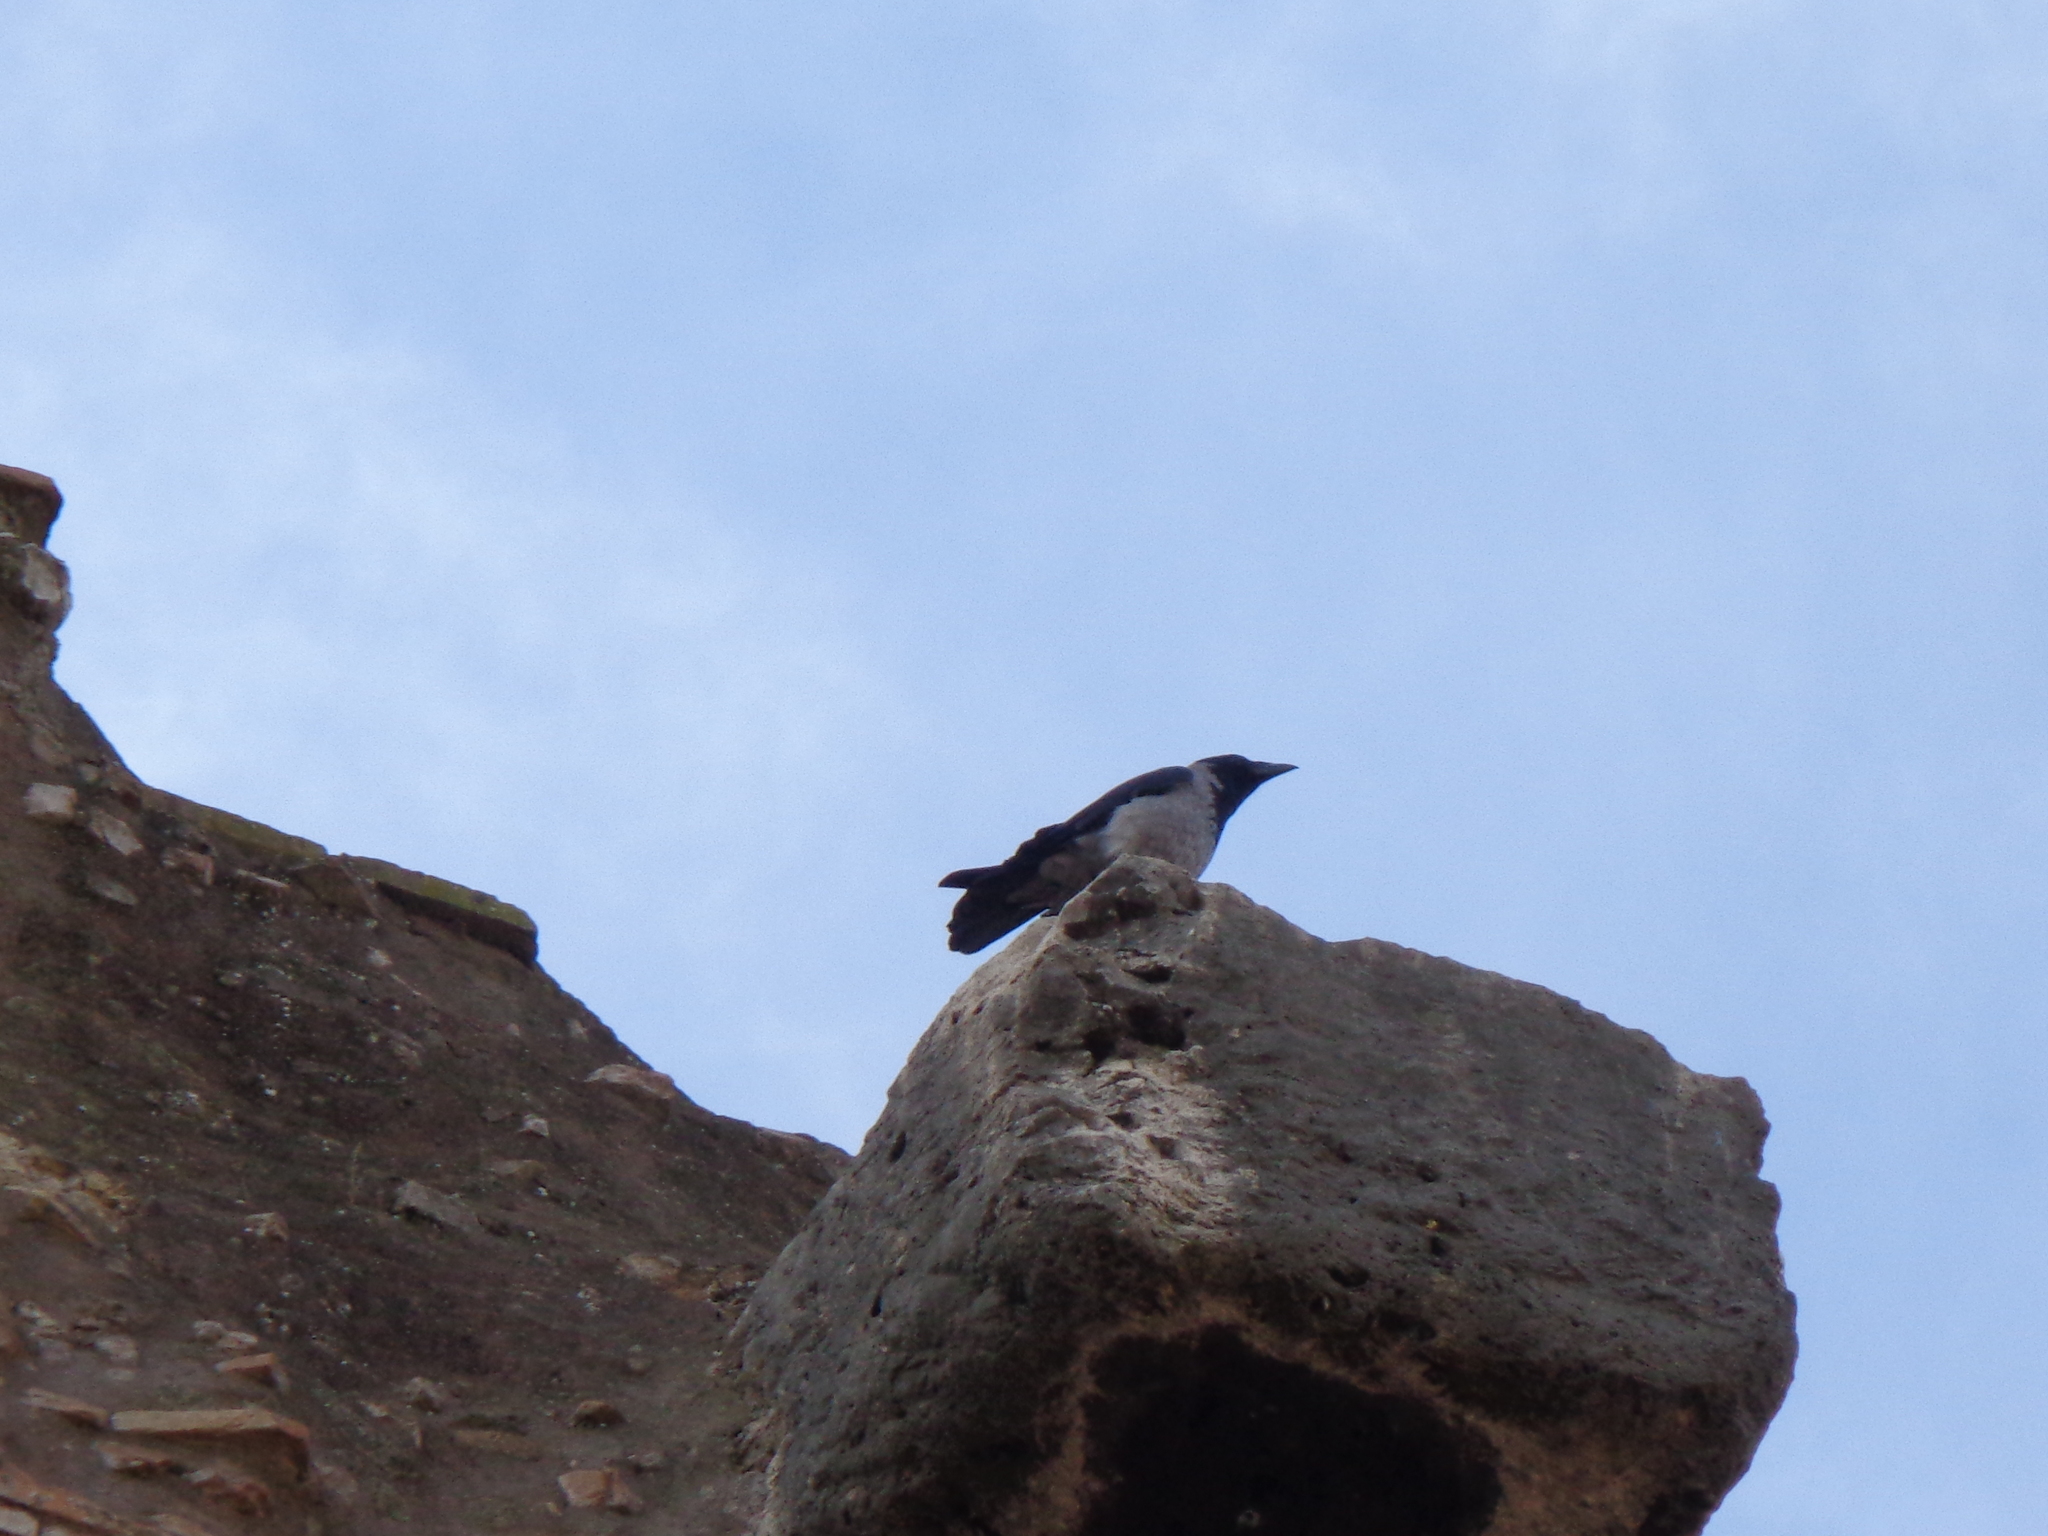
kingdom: Animalia
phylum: Chordata
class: Aves
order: Passeriformes
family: Corvidae
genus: Corvus
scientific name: Corvus cornix
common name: Hooded crow
